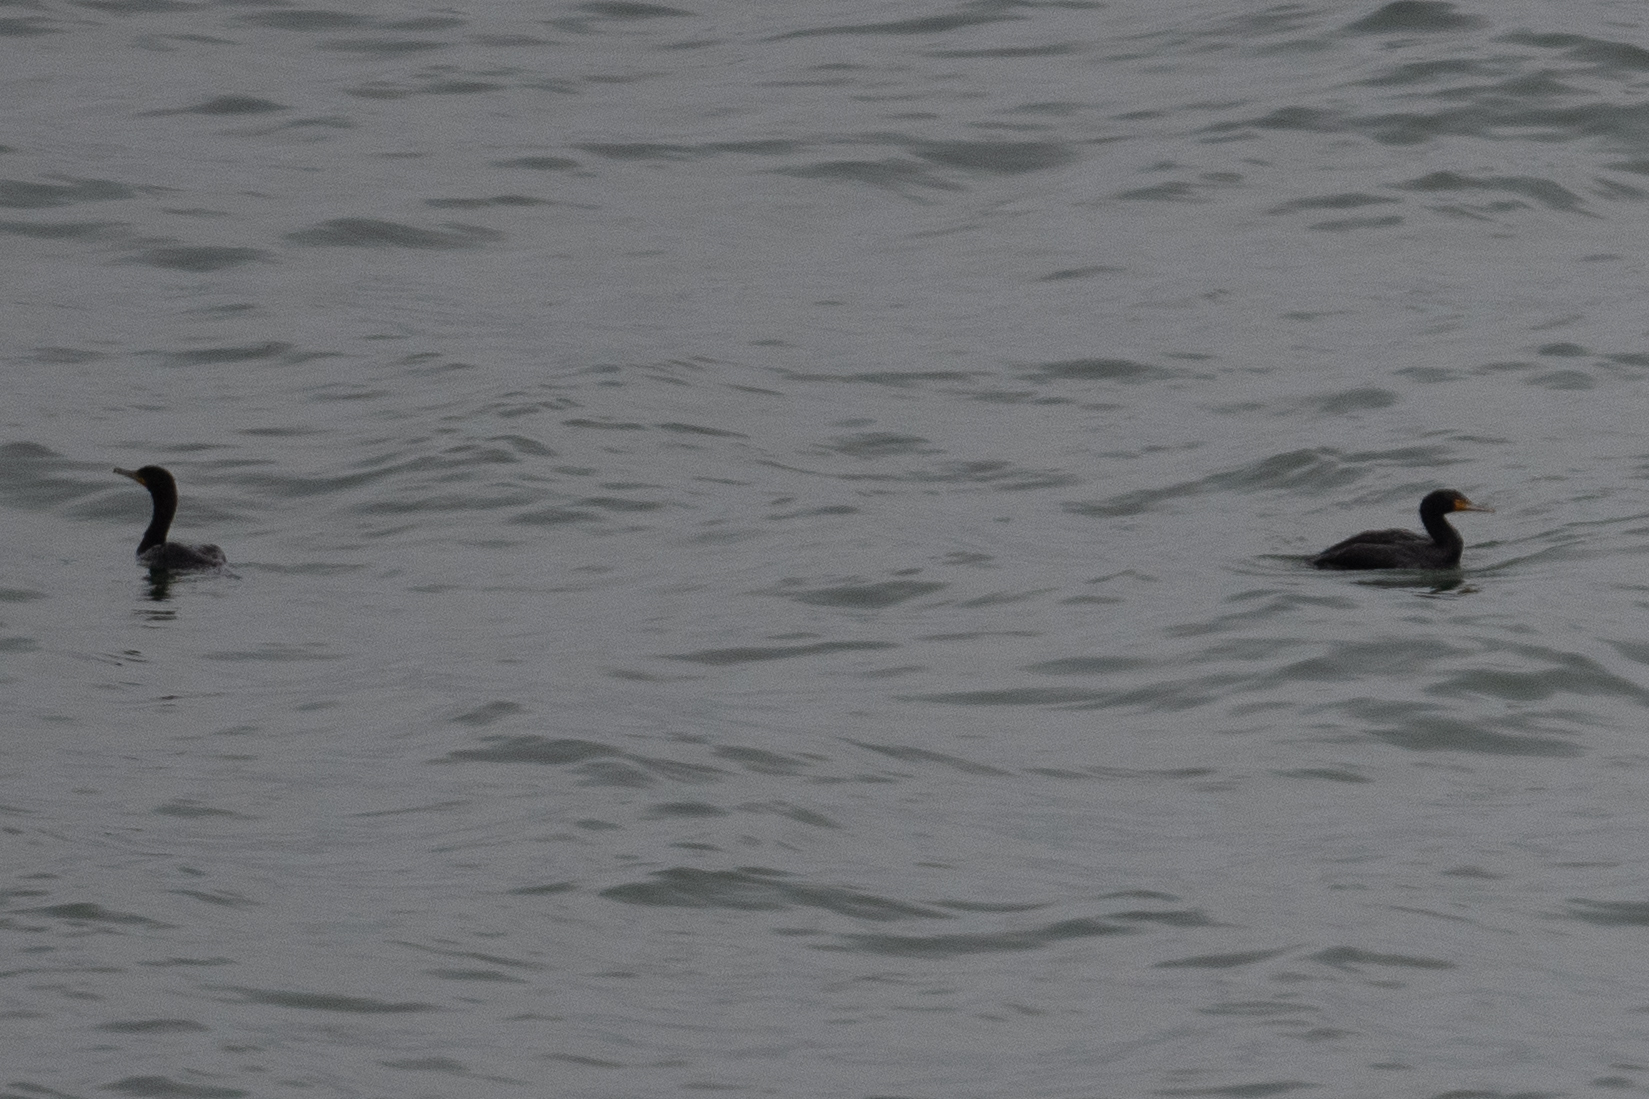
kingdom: Animalia
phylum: Chordata
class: Aves
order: Suliformes
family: Phalacrocoracidae
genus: Phalacrocorax
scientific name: Phalacrocorax auritus
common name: Double-crested cormorant
